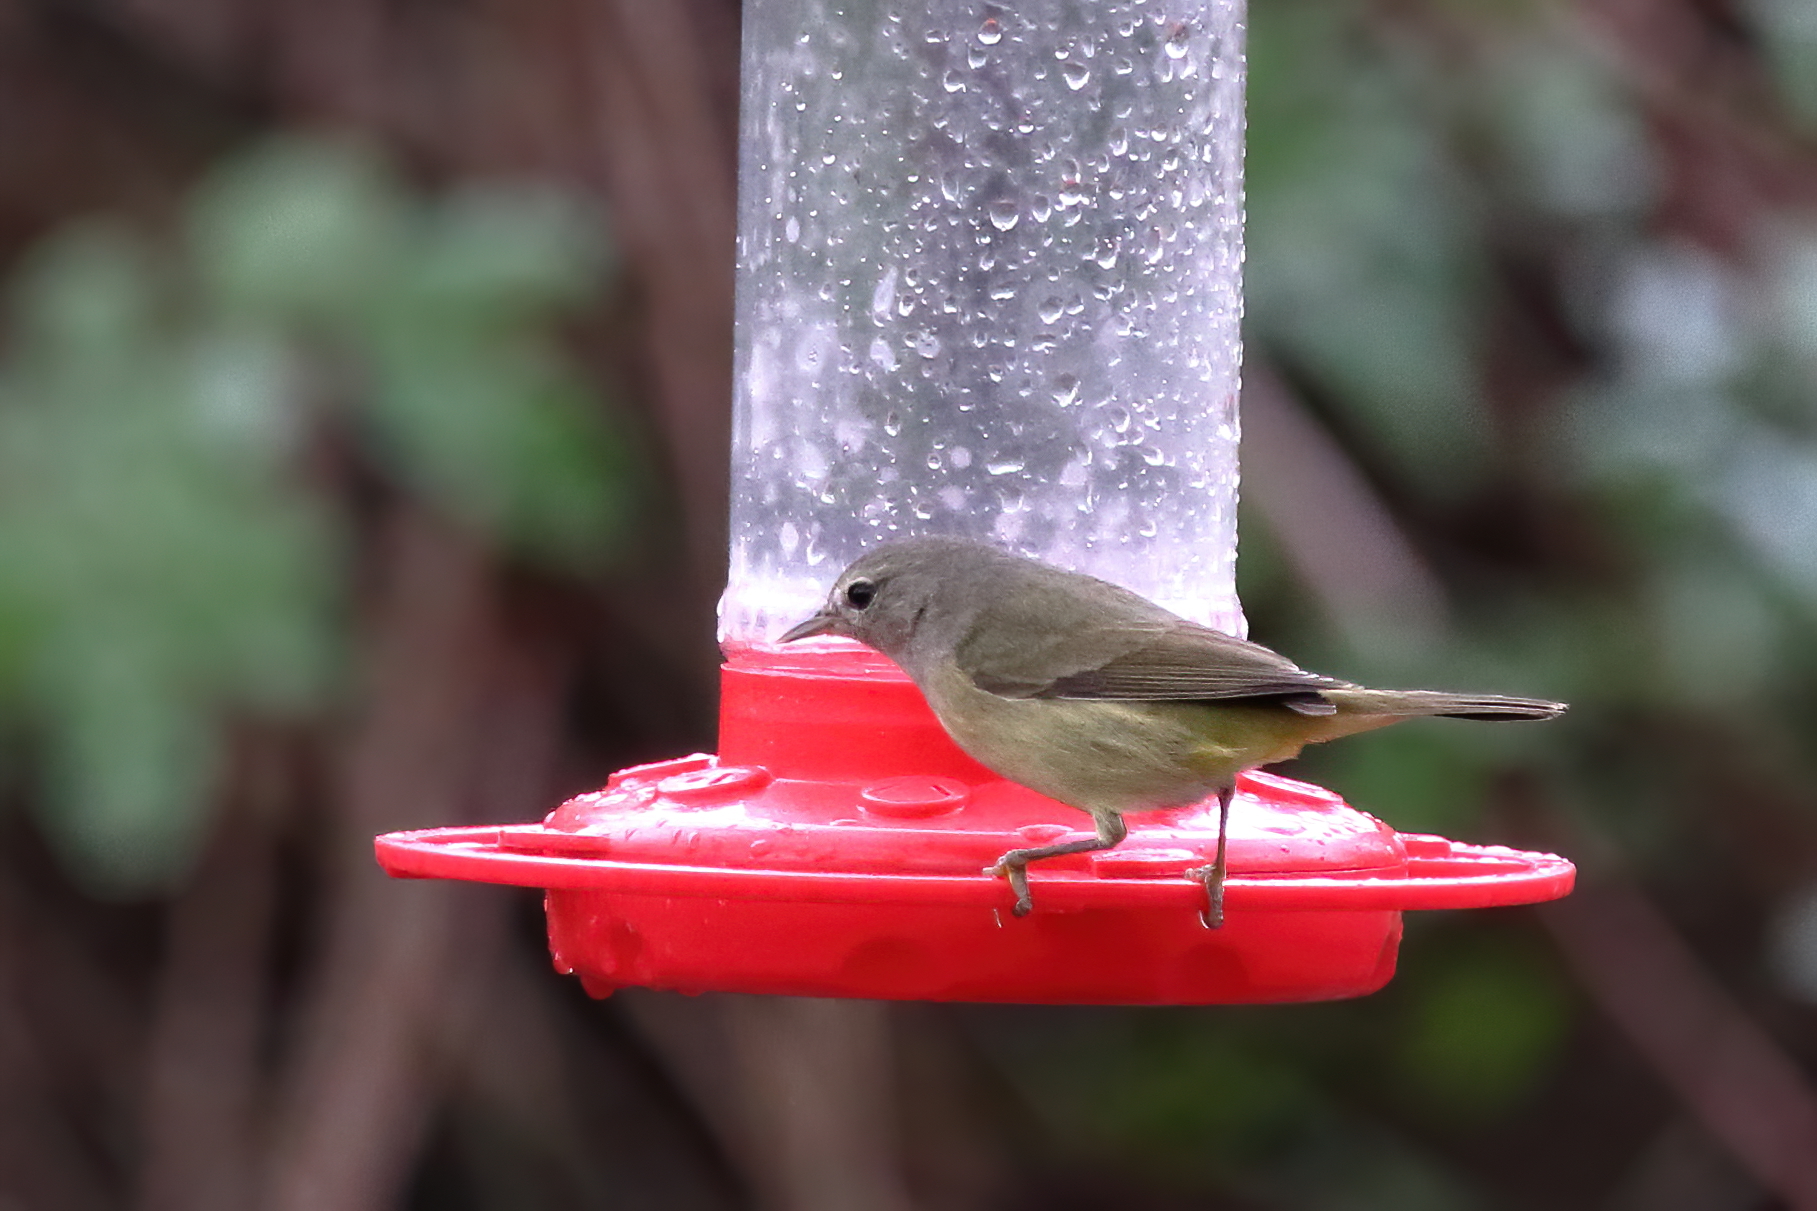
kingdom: Animalia
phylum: Chordata
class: Aves
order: Passeriformes
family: Parulidae
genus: Leiothlypis
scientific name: Leiothlypis celata
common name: Orange-crowned warbler
